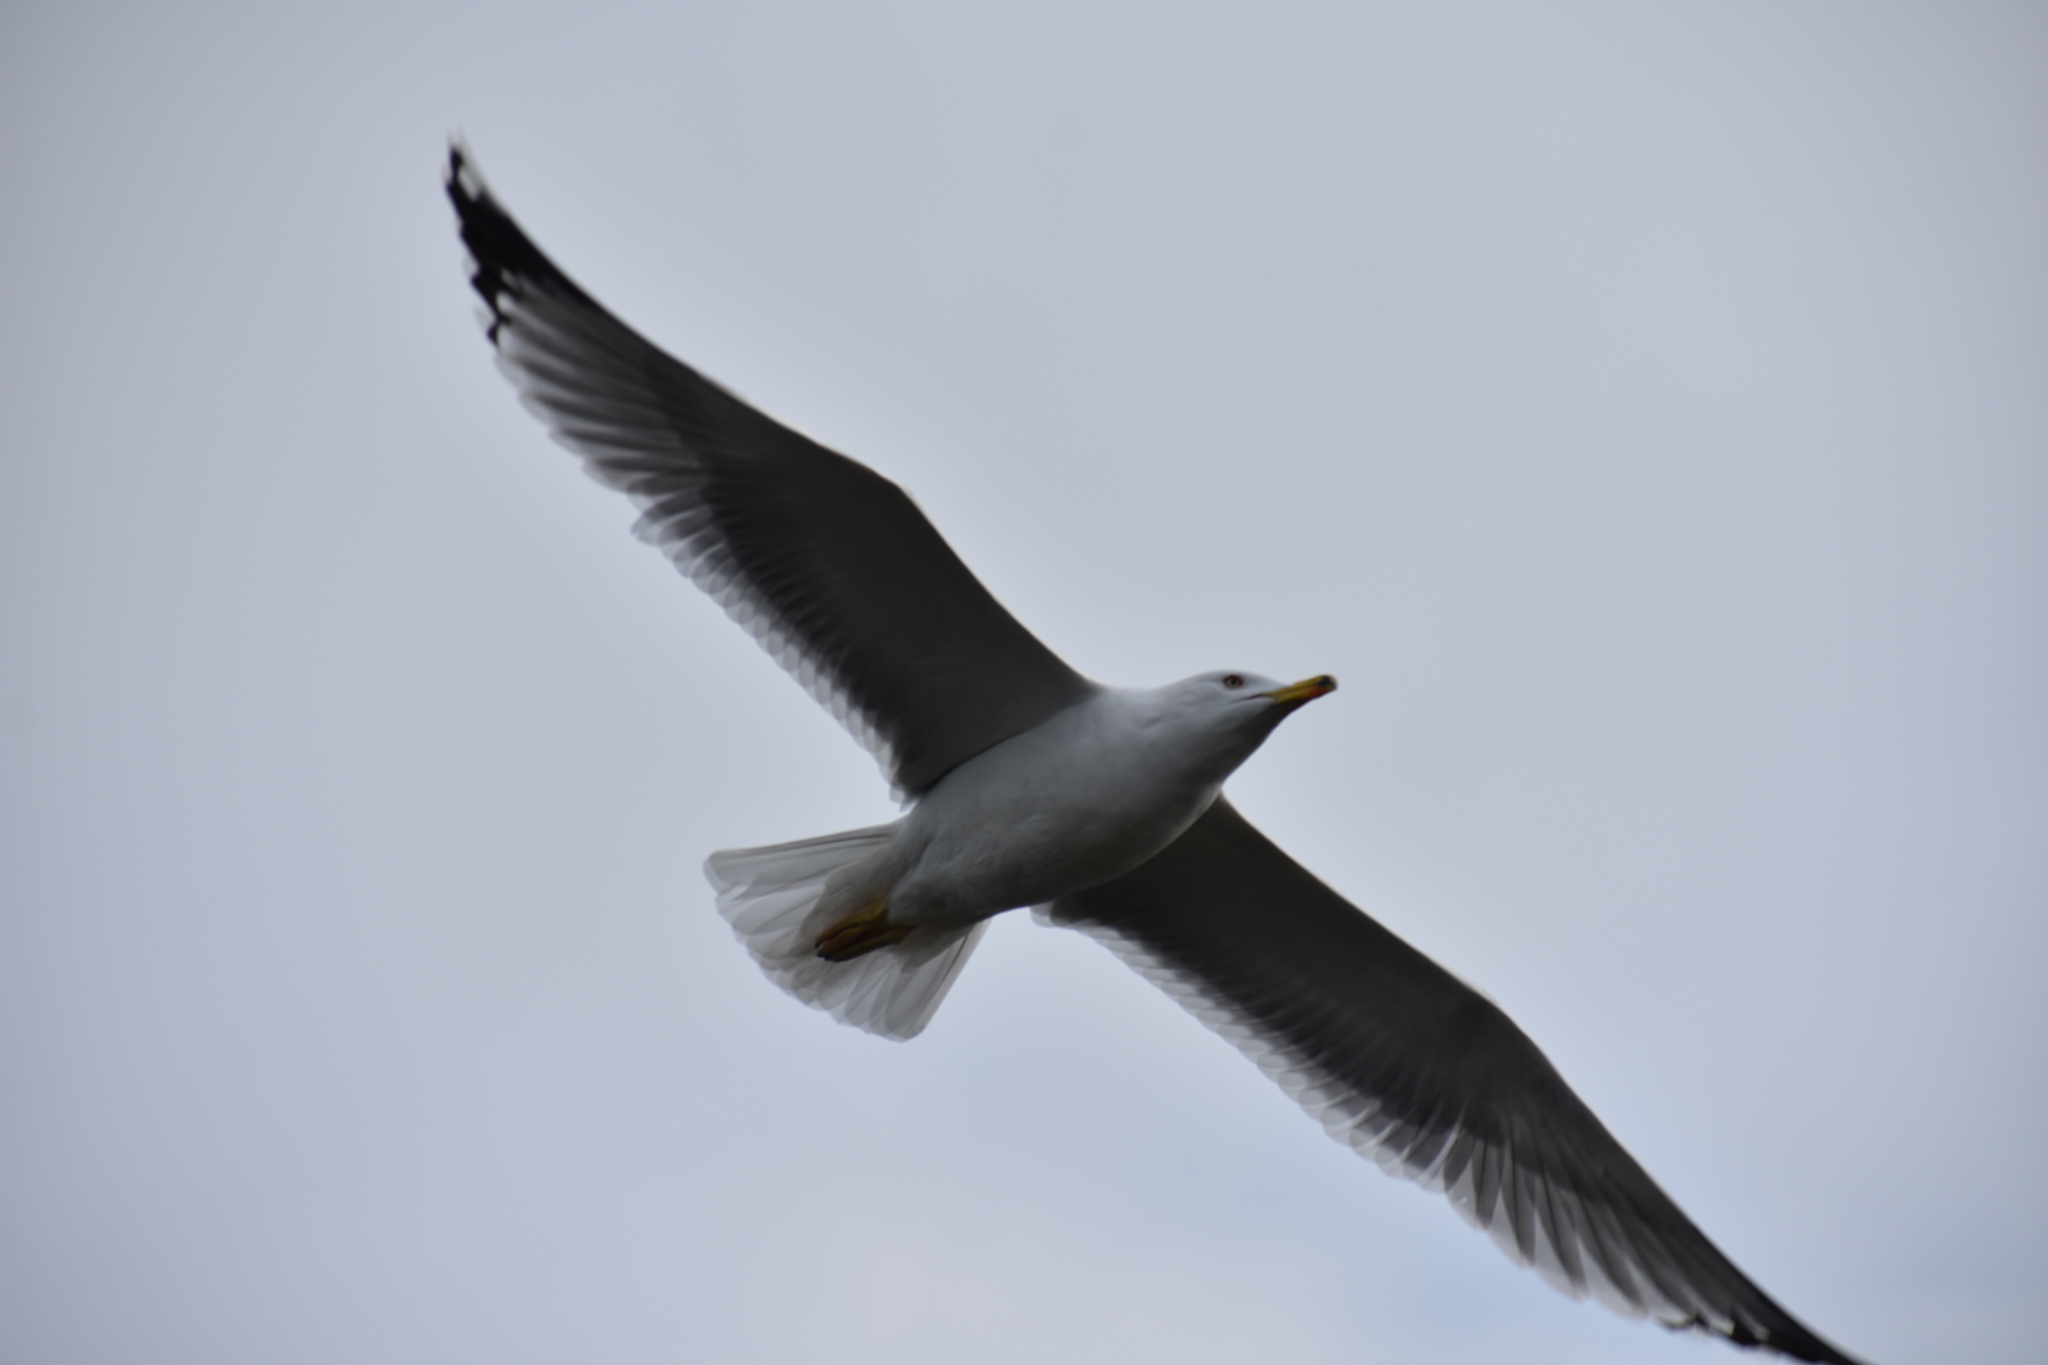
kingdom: Animalia
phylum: Chordata
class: Aves
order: Charadriiformes
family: Laridae
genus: Larus
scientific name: Larus michahellis
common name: Yellow-legged gull
